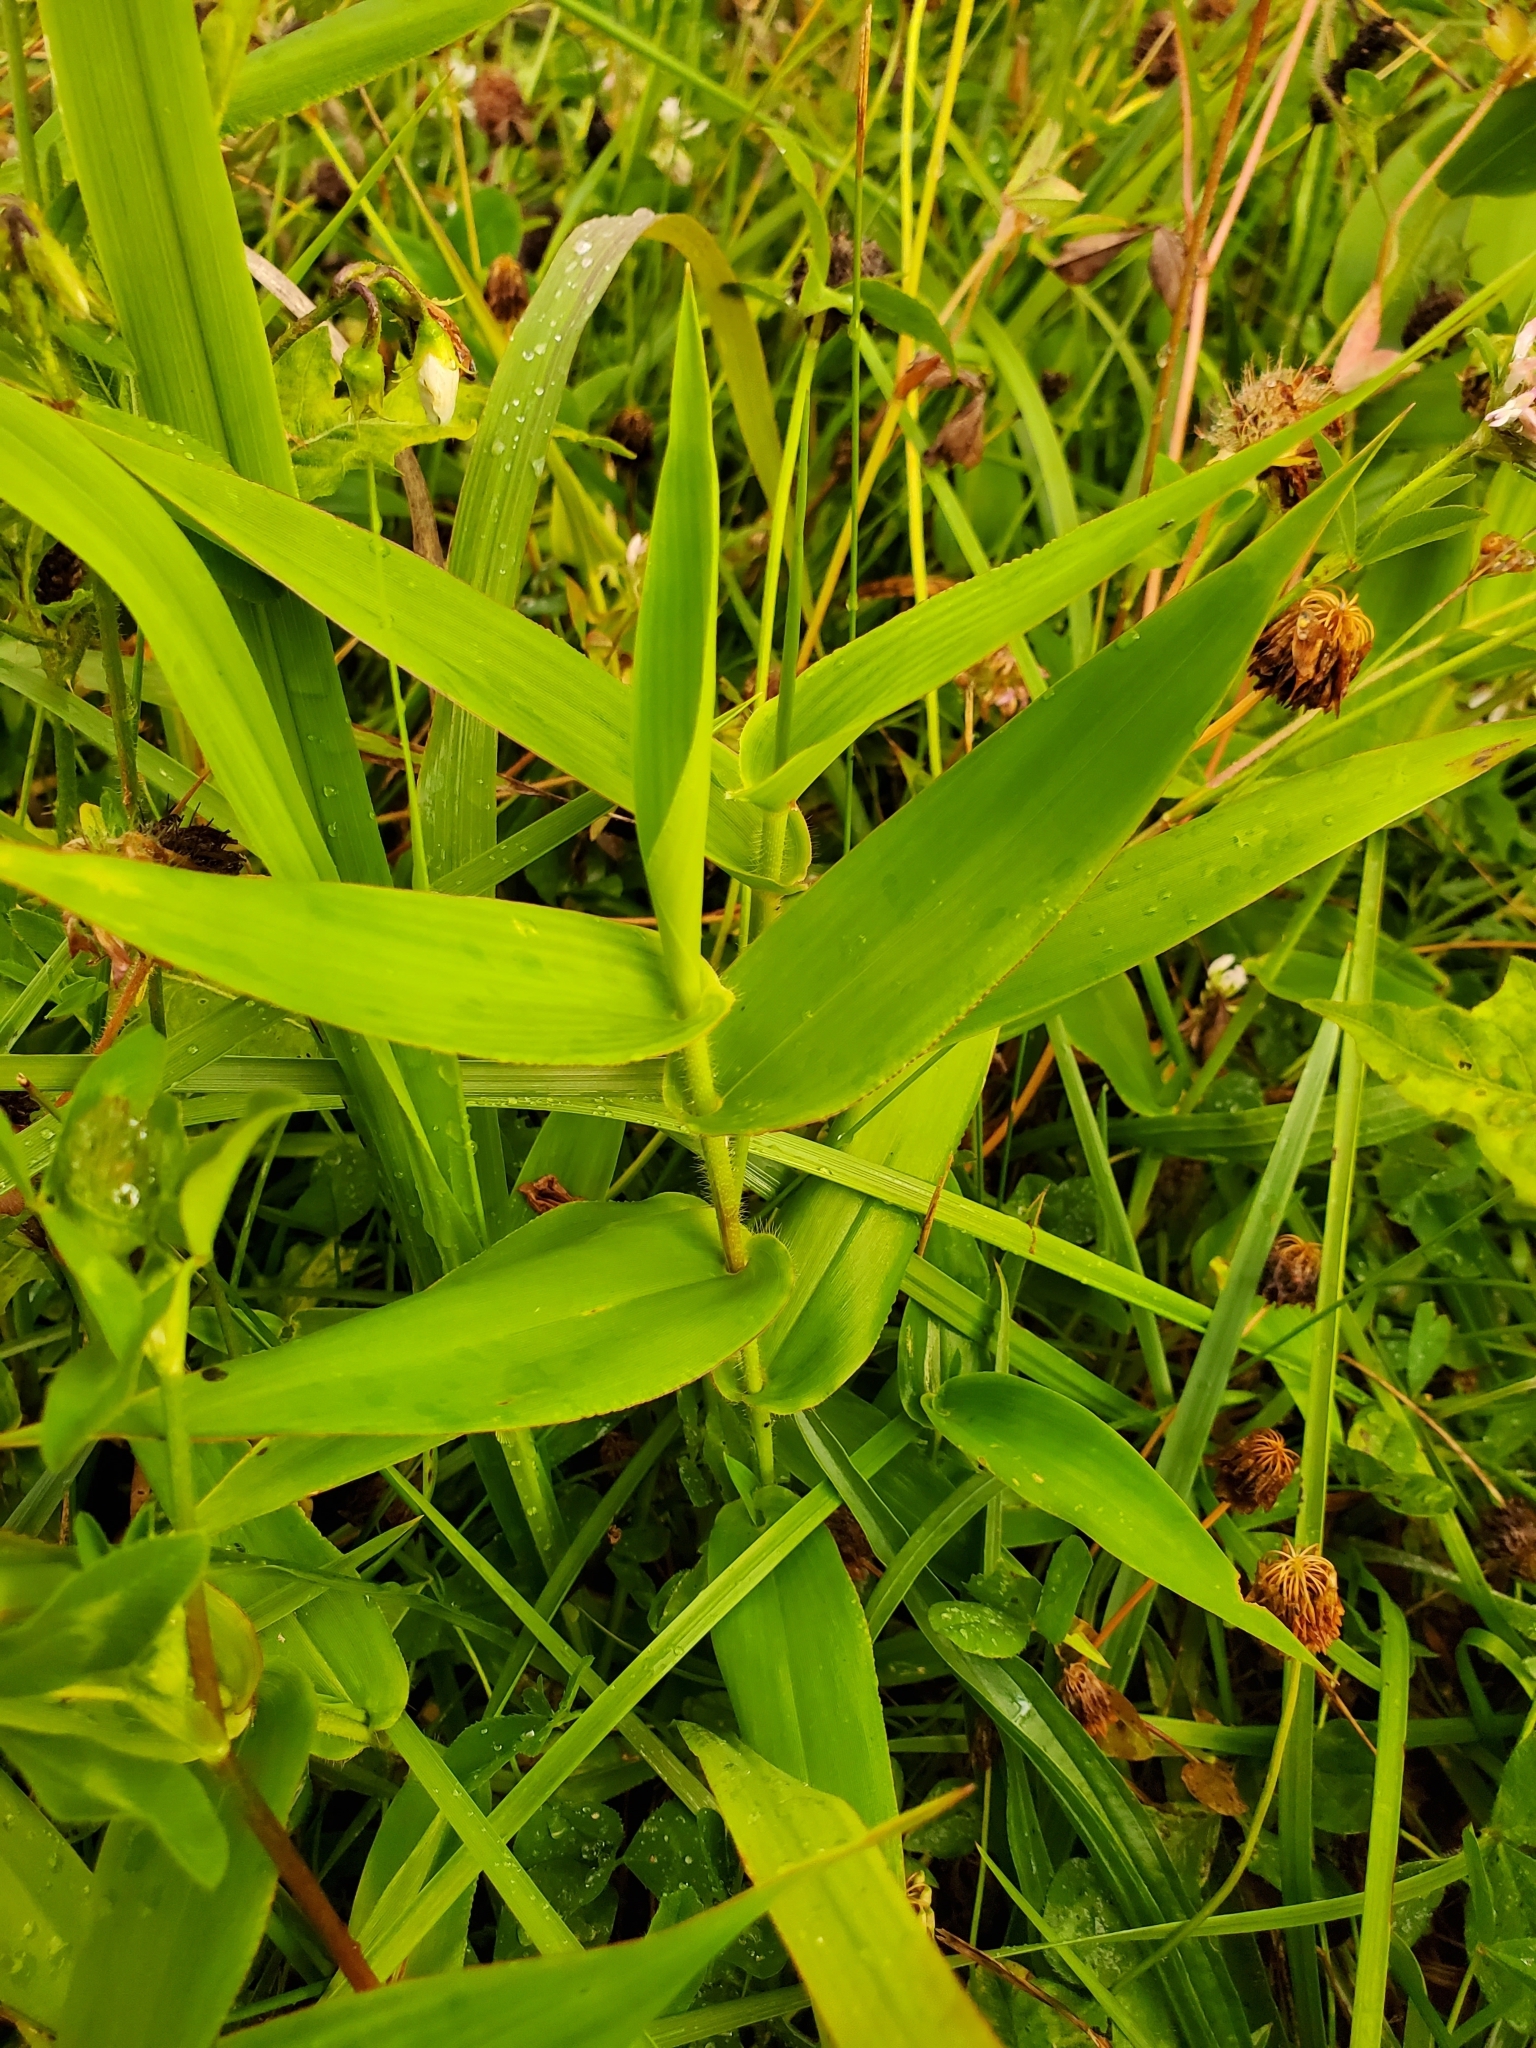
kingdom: Plantae
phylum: Tracheophyta
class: Liliopsida
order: Poales
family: Poaceae
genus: Dichanthelium
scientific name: Dichanthelium clandestinum
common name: Deer-tongue grass
